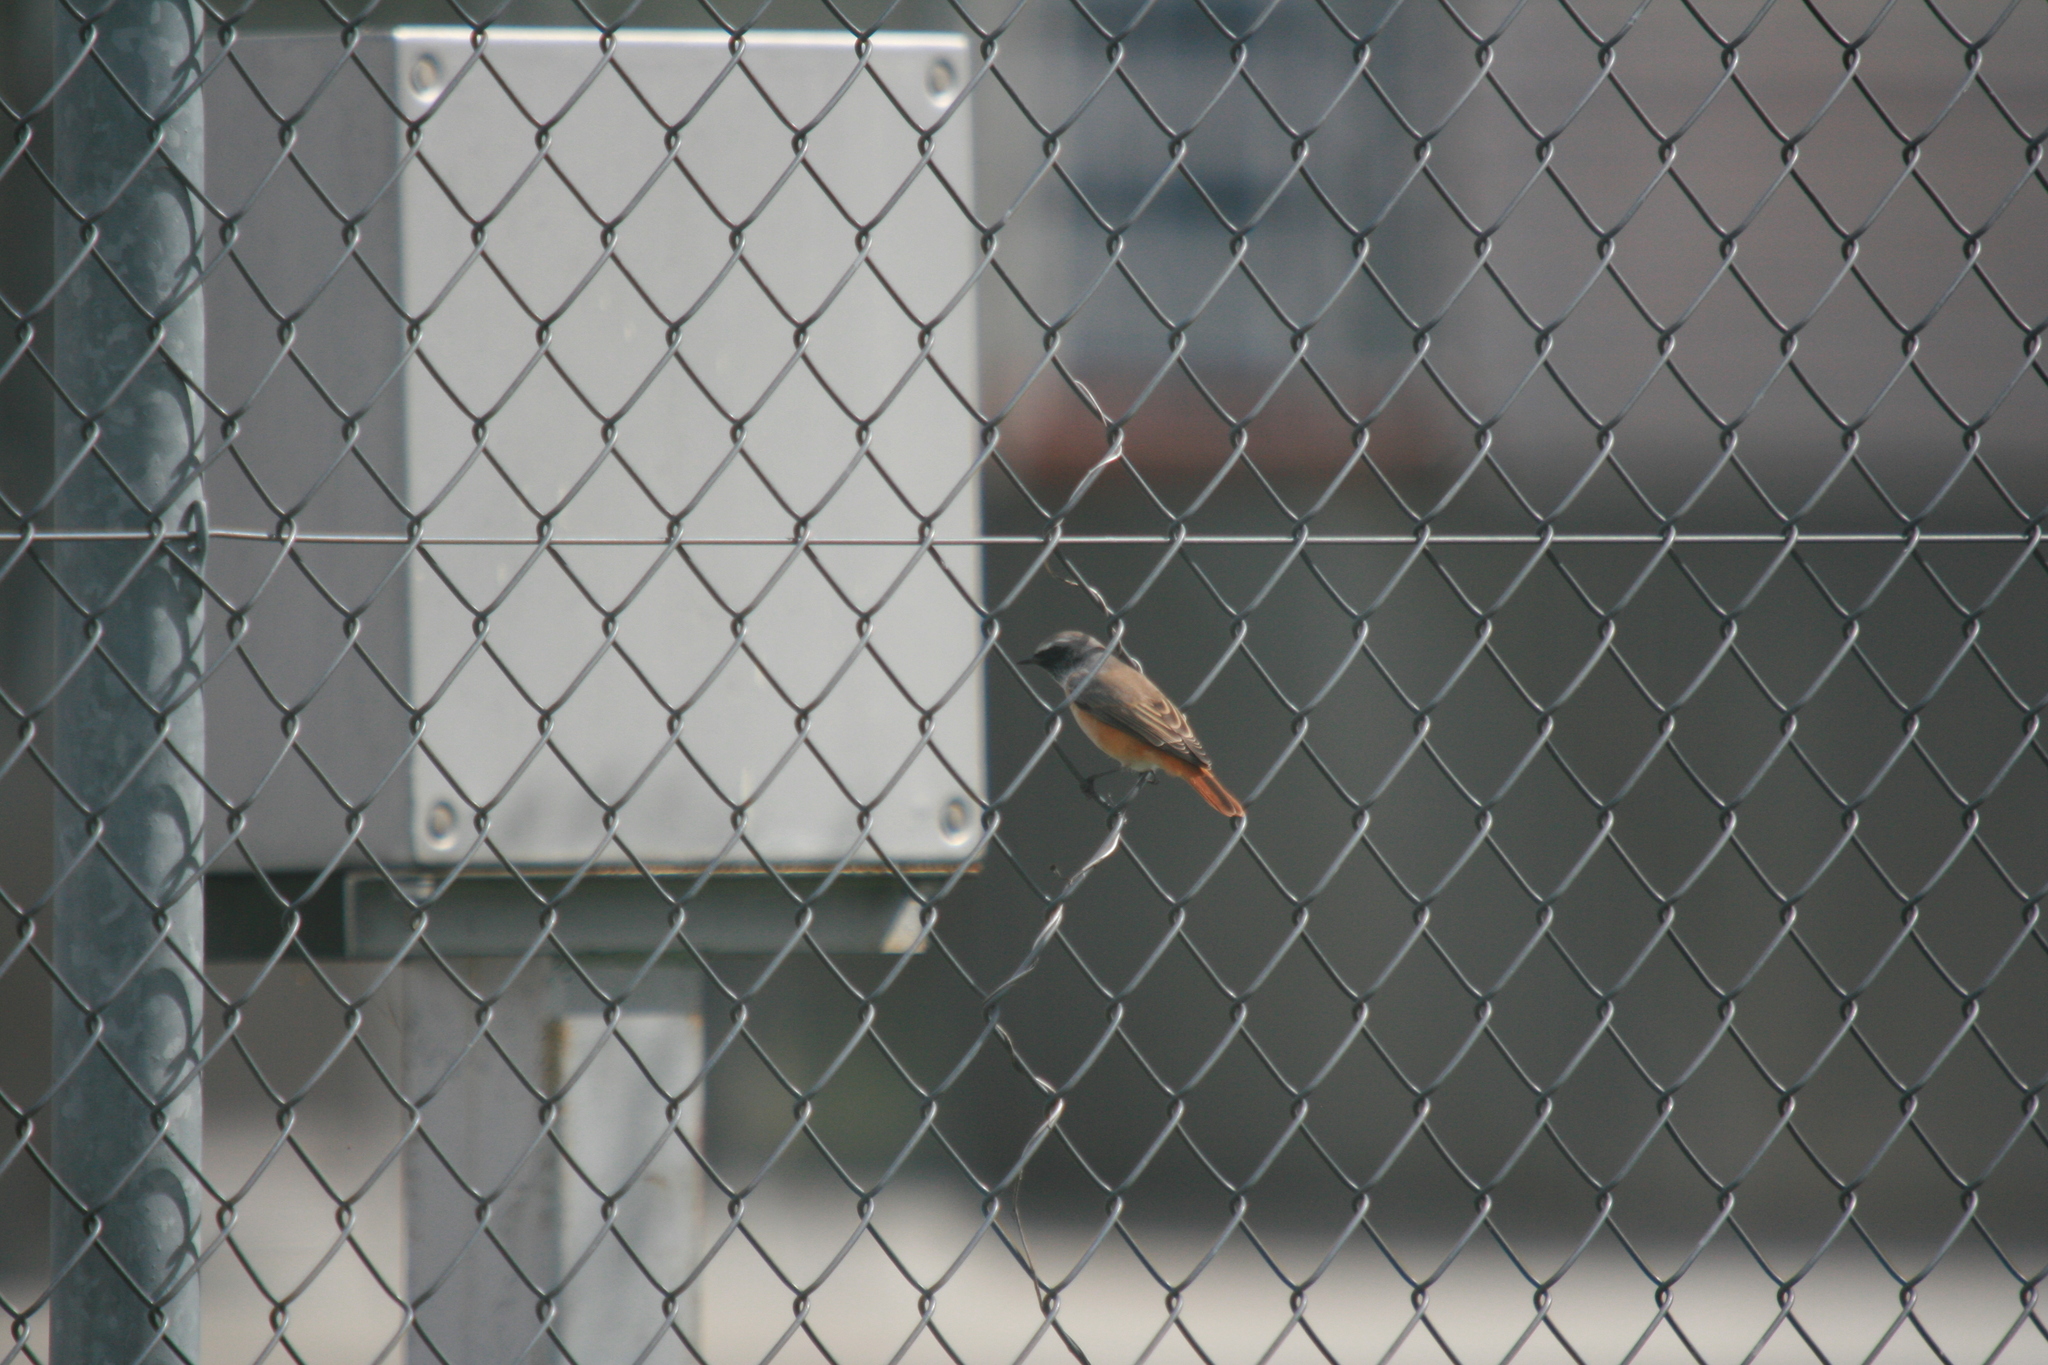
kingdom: Animalia
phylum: Chordata
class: Aves
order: Passeriformes
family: Muscicapidae
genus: Phoenicurus
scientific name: Phoenicurus phoenicurus
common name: Common redstart
